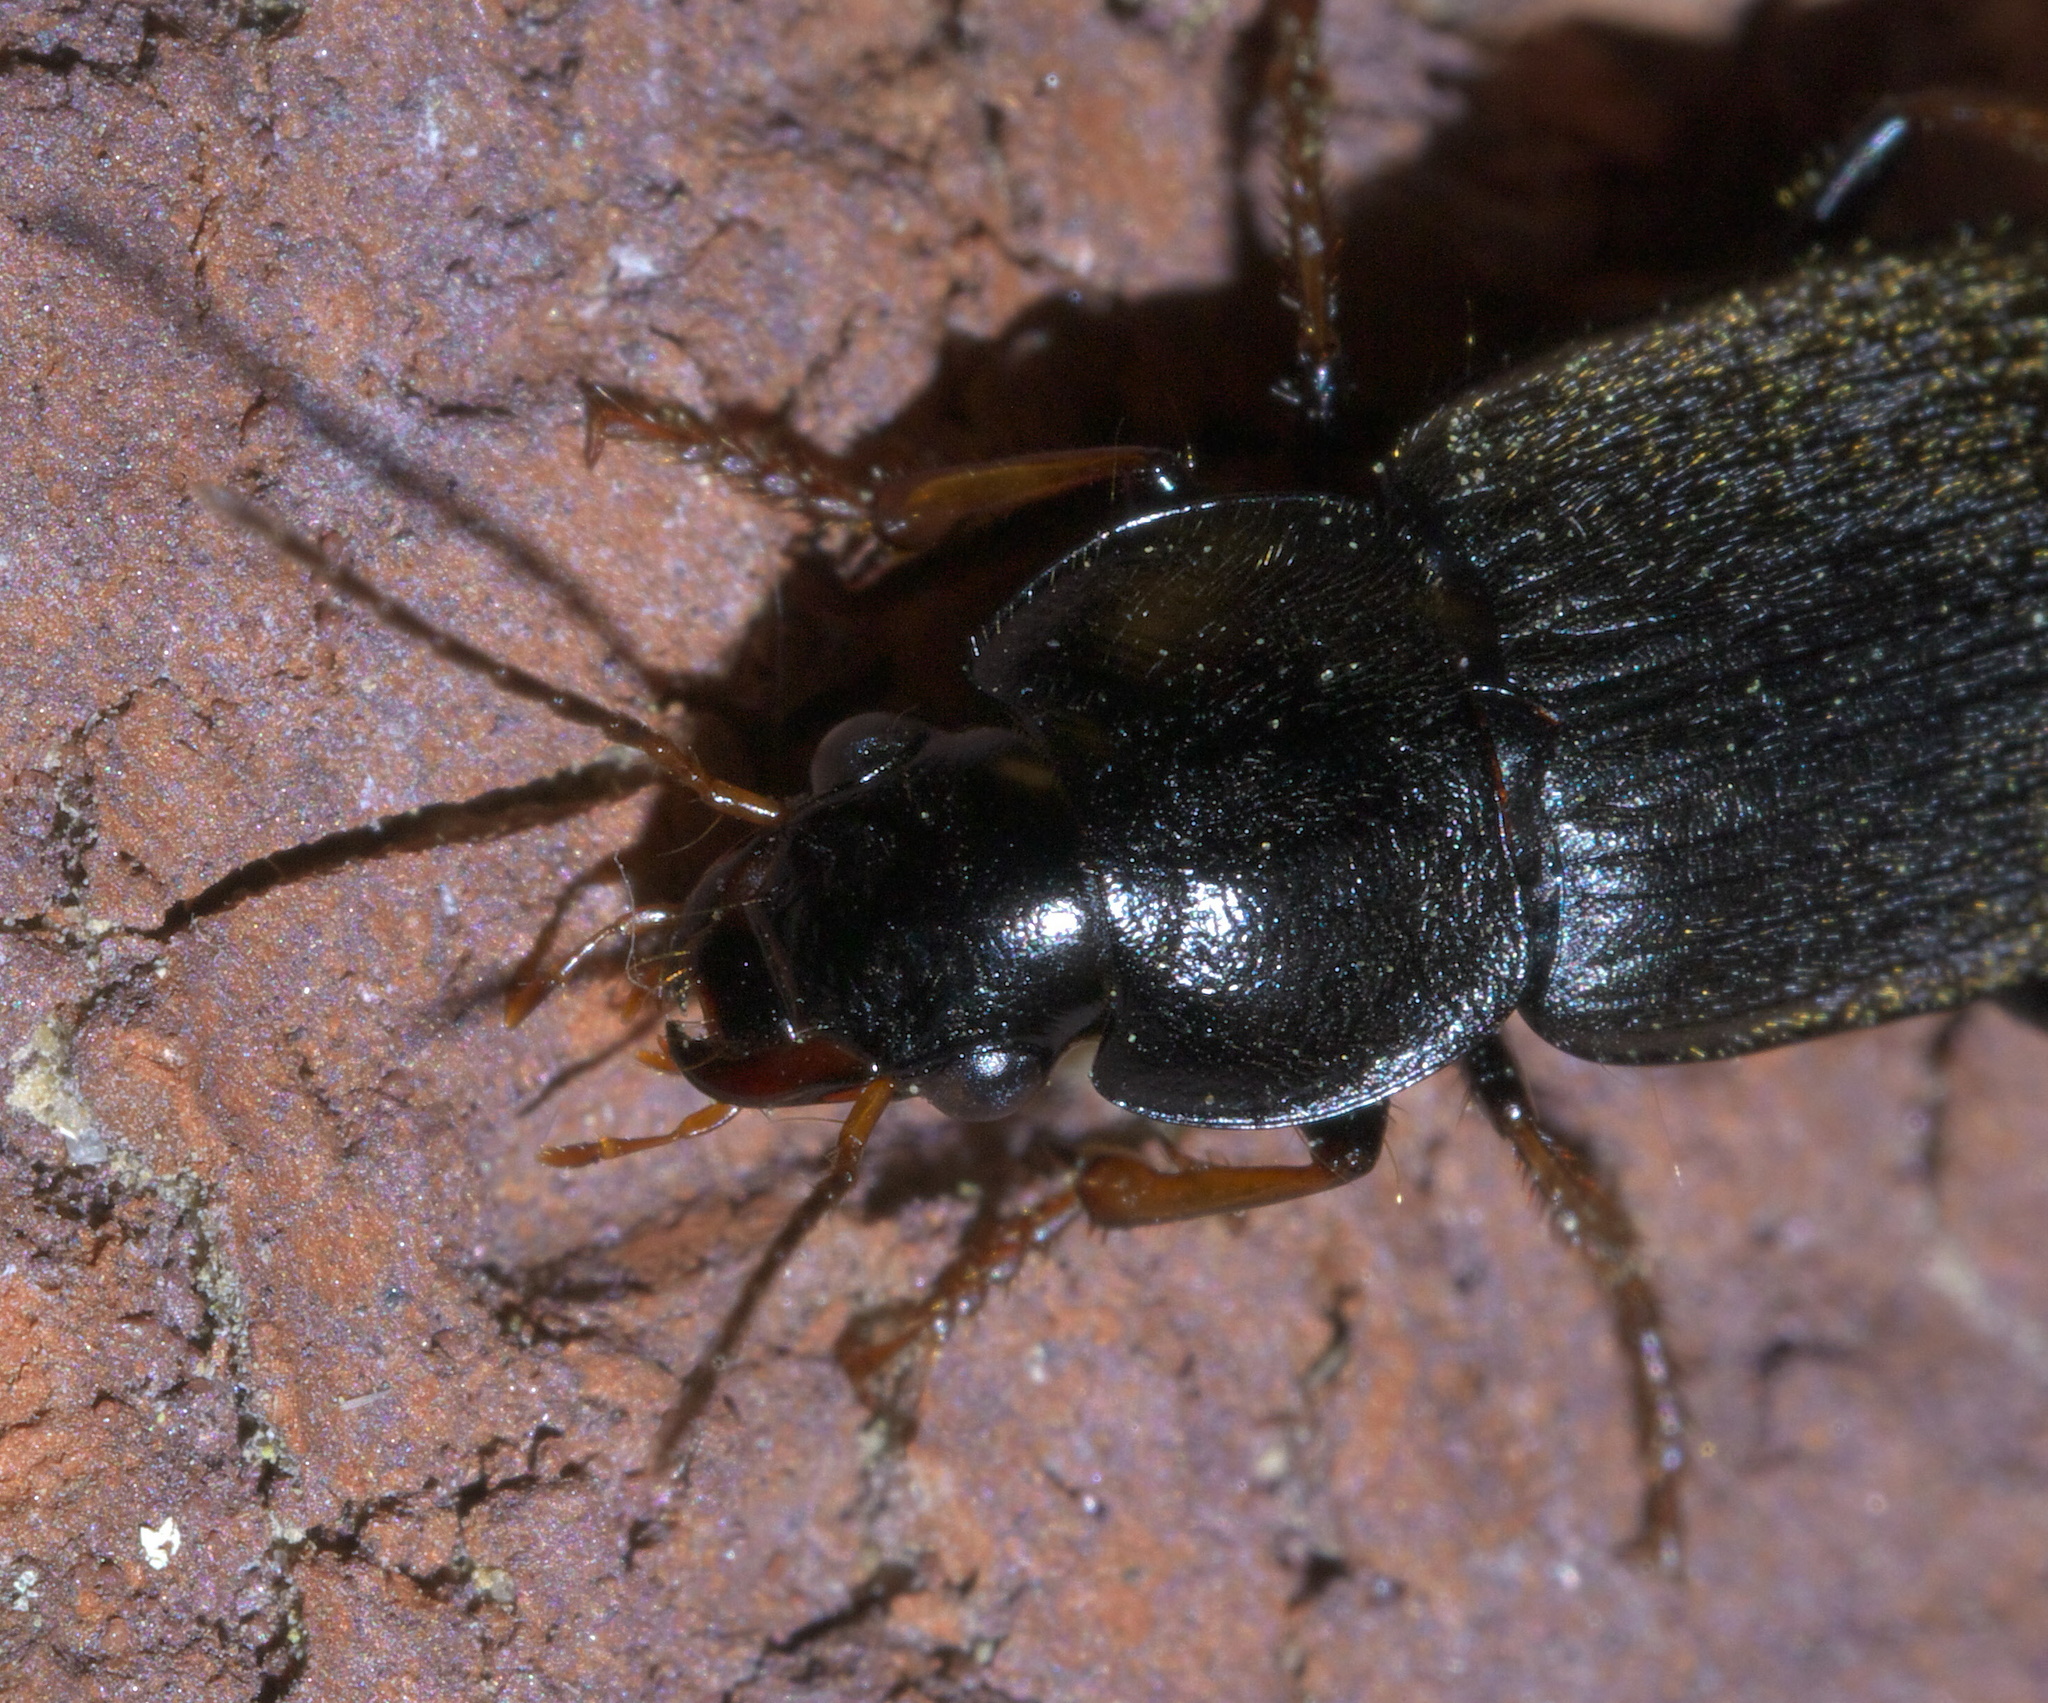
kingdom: Animalia
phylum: Arthropoda
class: Insecta
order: Coleoptera
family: Carabidae
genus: Amphasia
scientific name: Amphasia sericea
